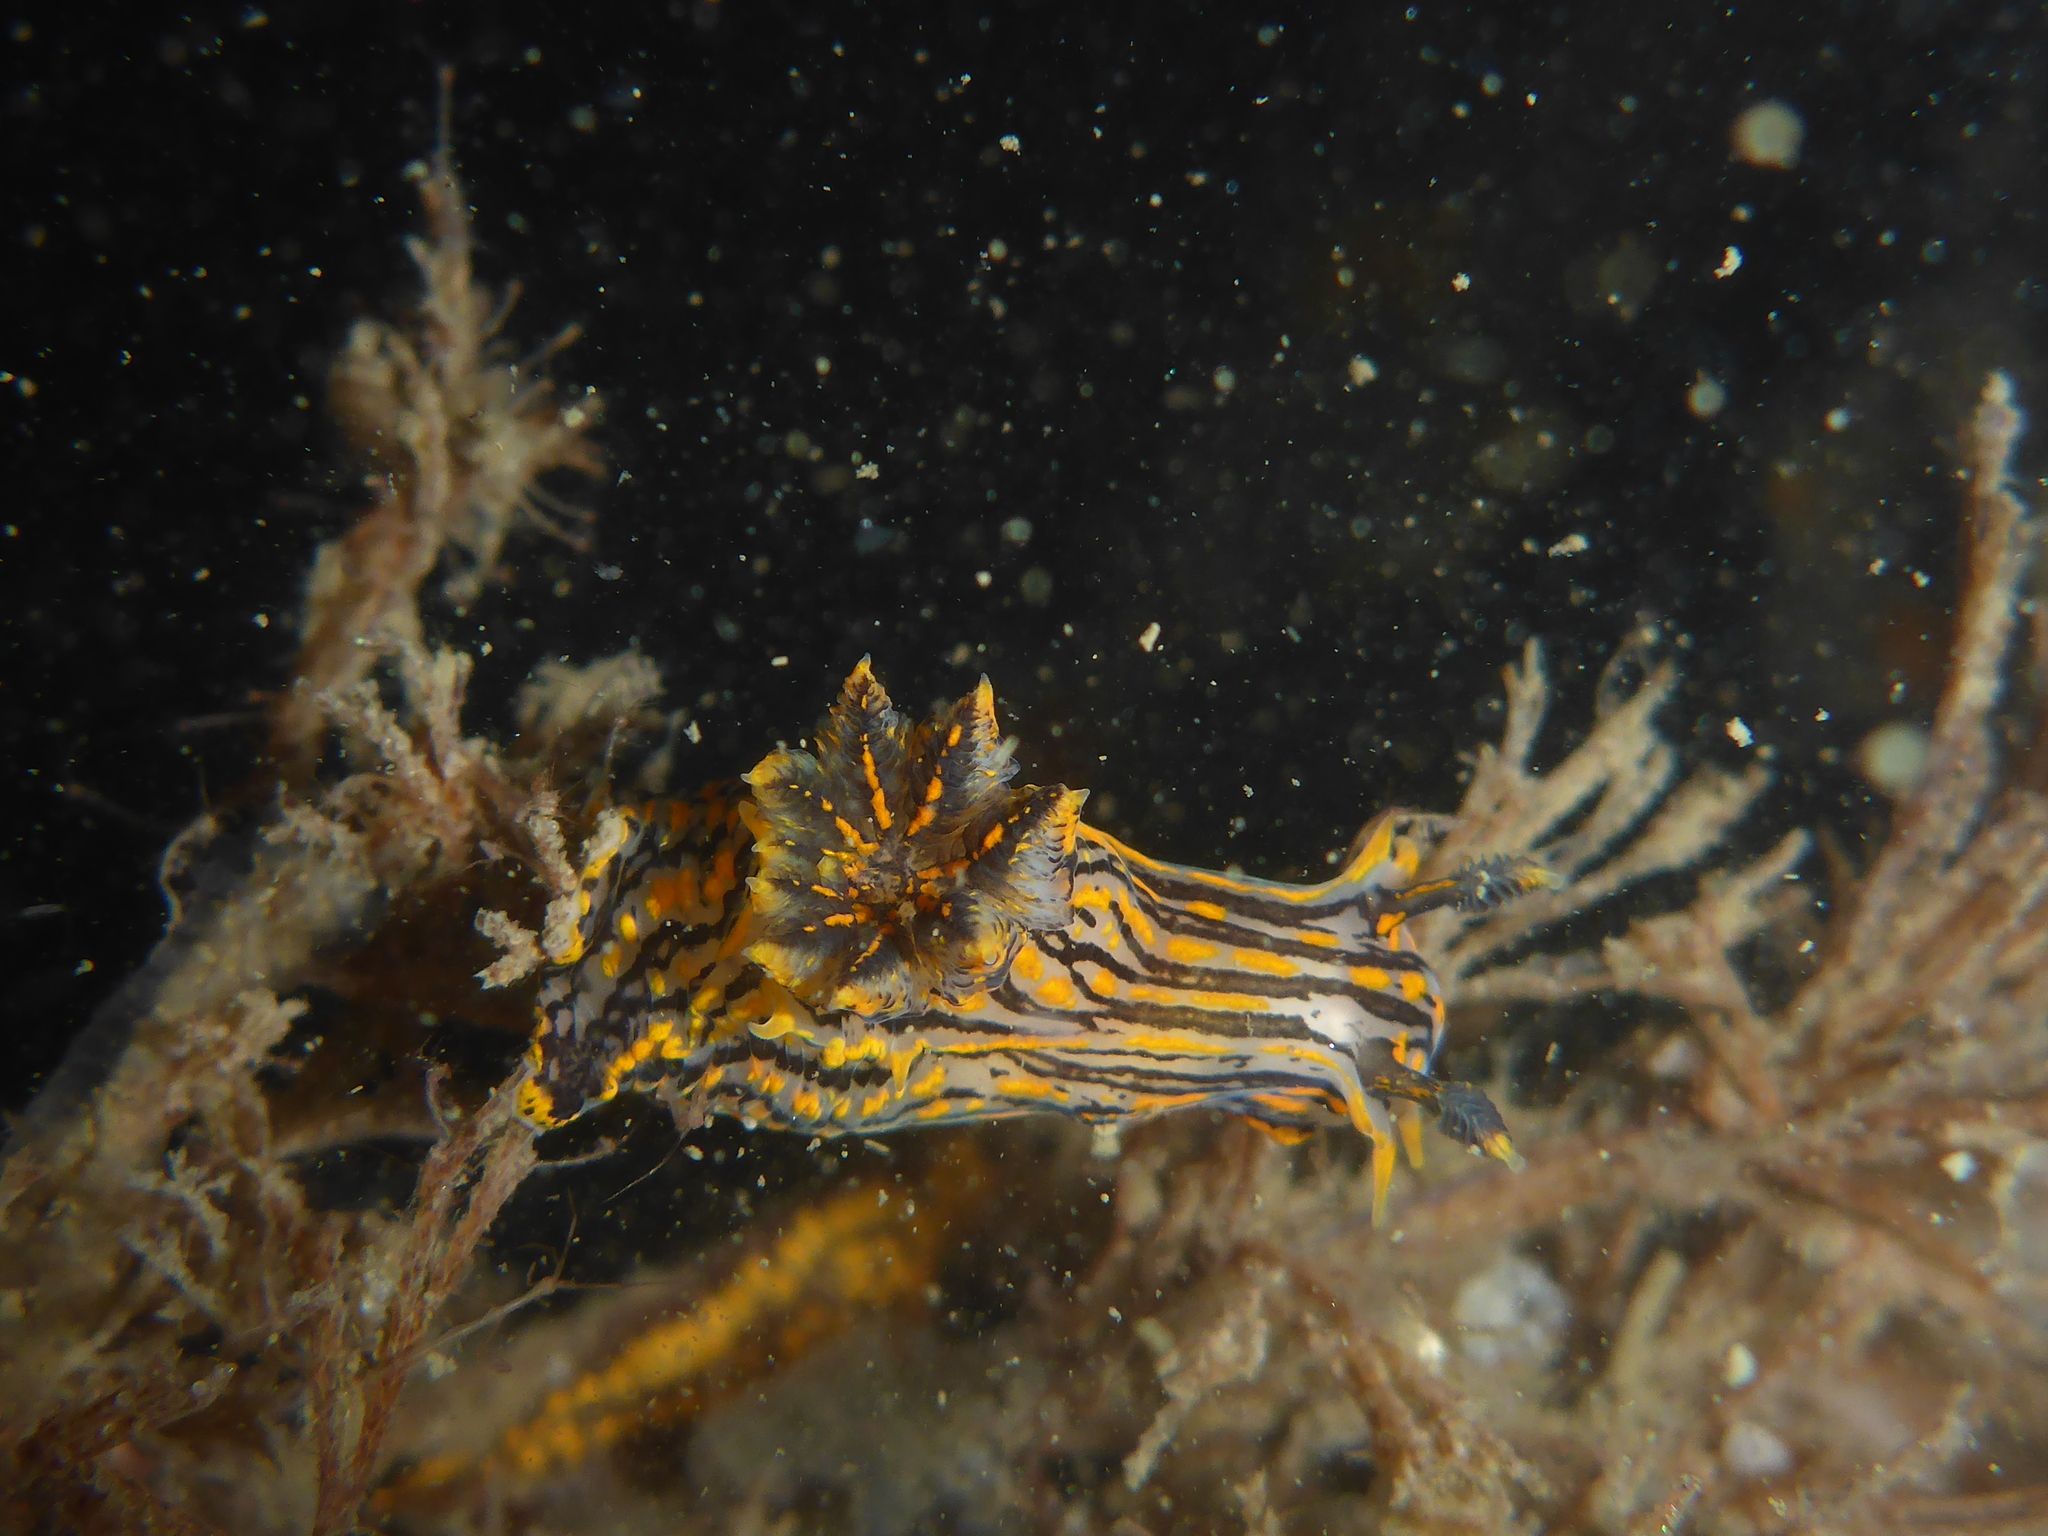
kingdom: Animalia
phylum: Mollusca
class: Gastropoda
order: Nudibranchia
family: Polyceridae
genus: Polycera
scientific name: Polycera atra
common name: Orange-spike polycera
